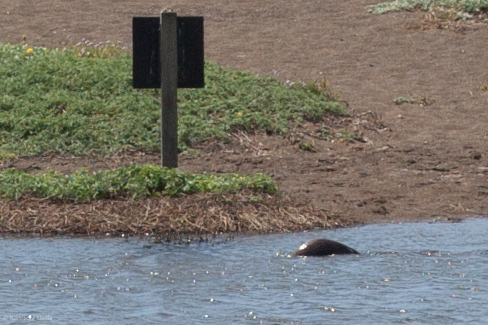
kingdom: Animalia
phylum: Chordata
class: Mammalia
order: Carnivora
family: Mustelidae
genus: Lontra
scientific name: Lontra canadensis
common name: North american river otter
